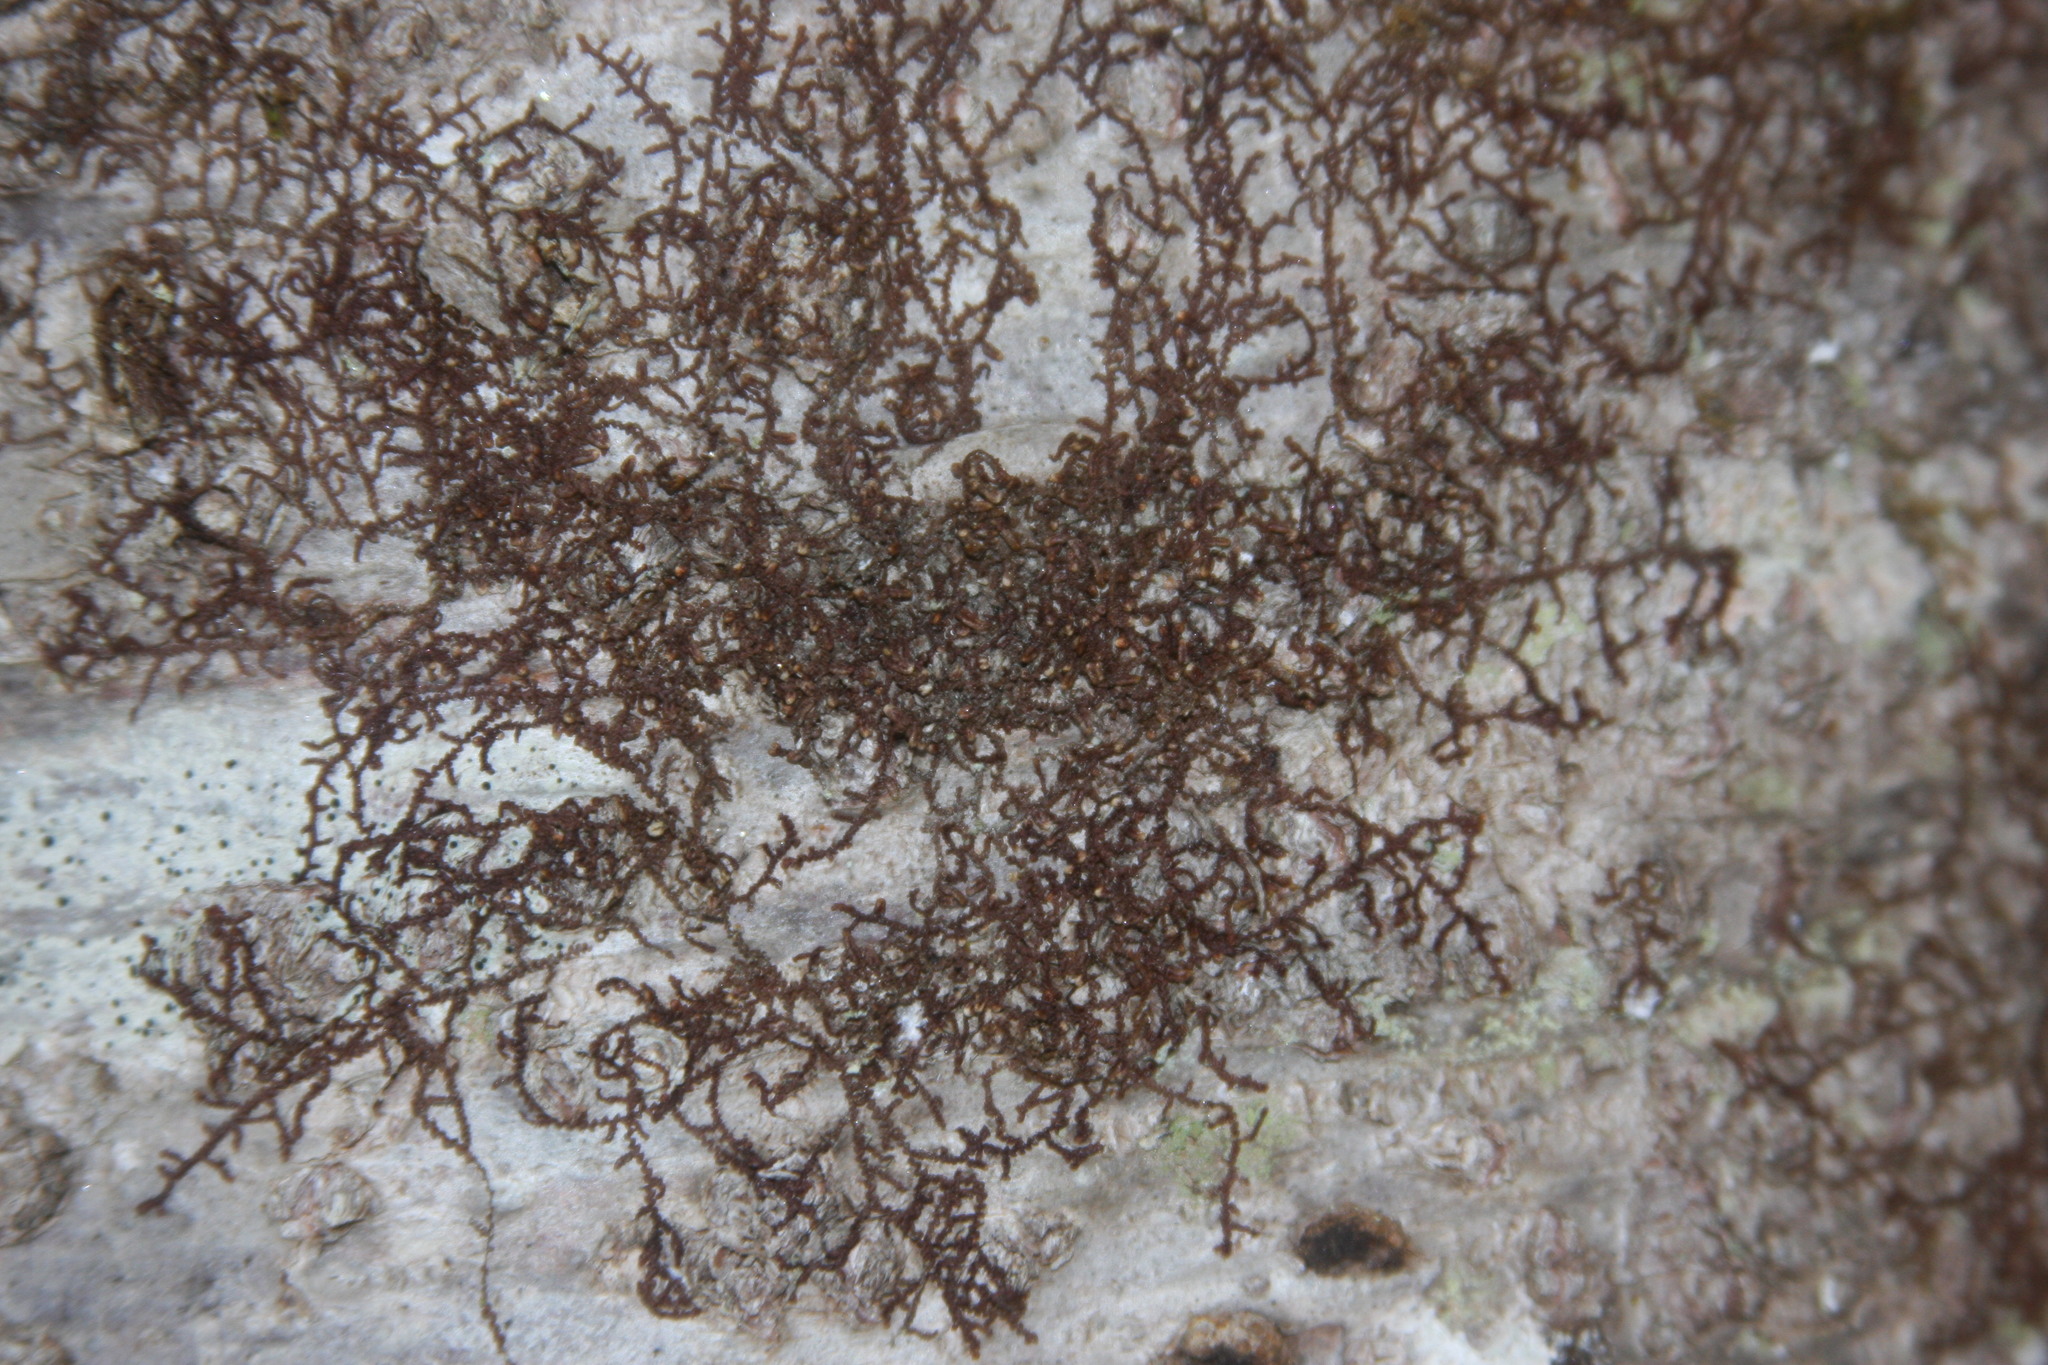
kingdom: Plantae
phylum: Marchantiophyta
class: Jungermanniopsida
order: Porellales
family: Frullaniaceae
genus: Frullania
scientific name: Frullania eboracensis
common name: New york scalewort
